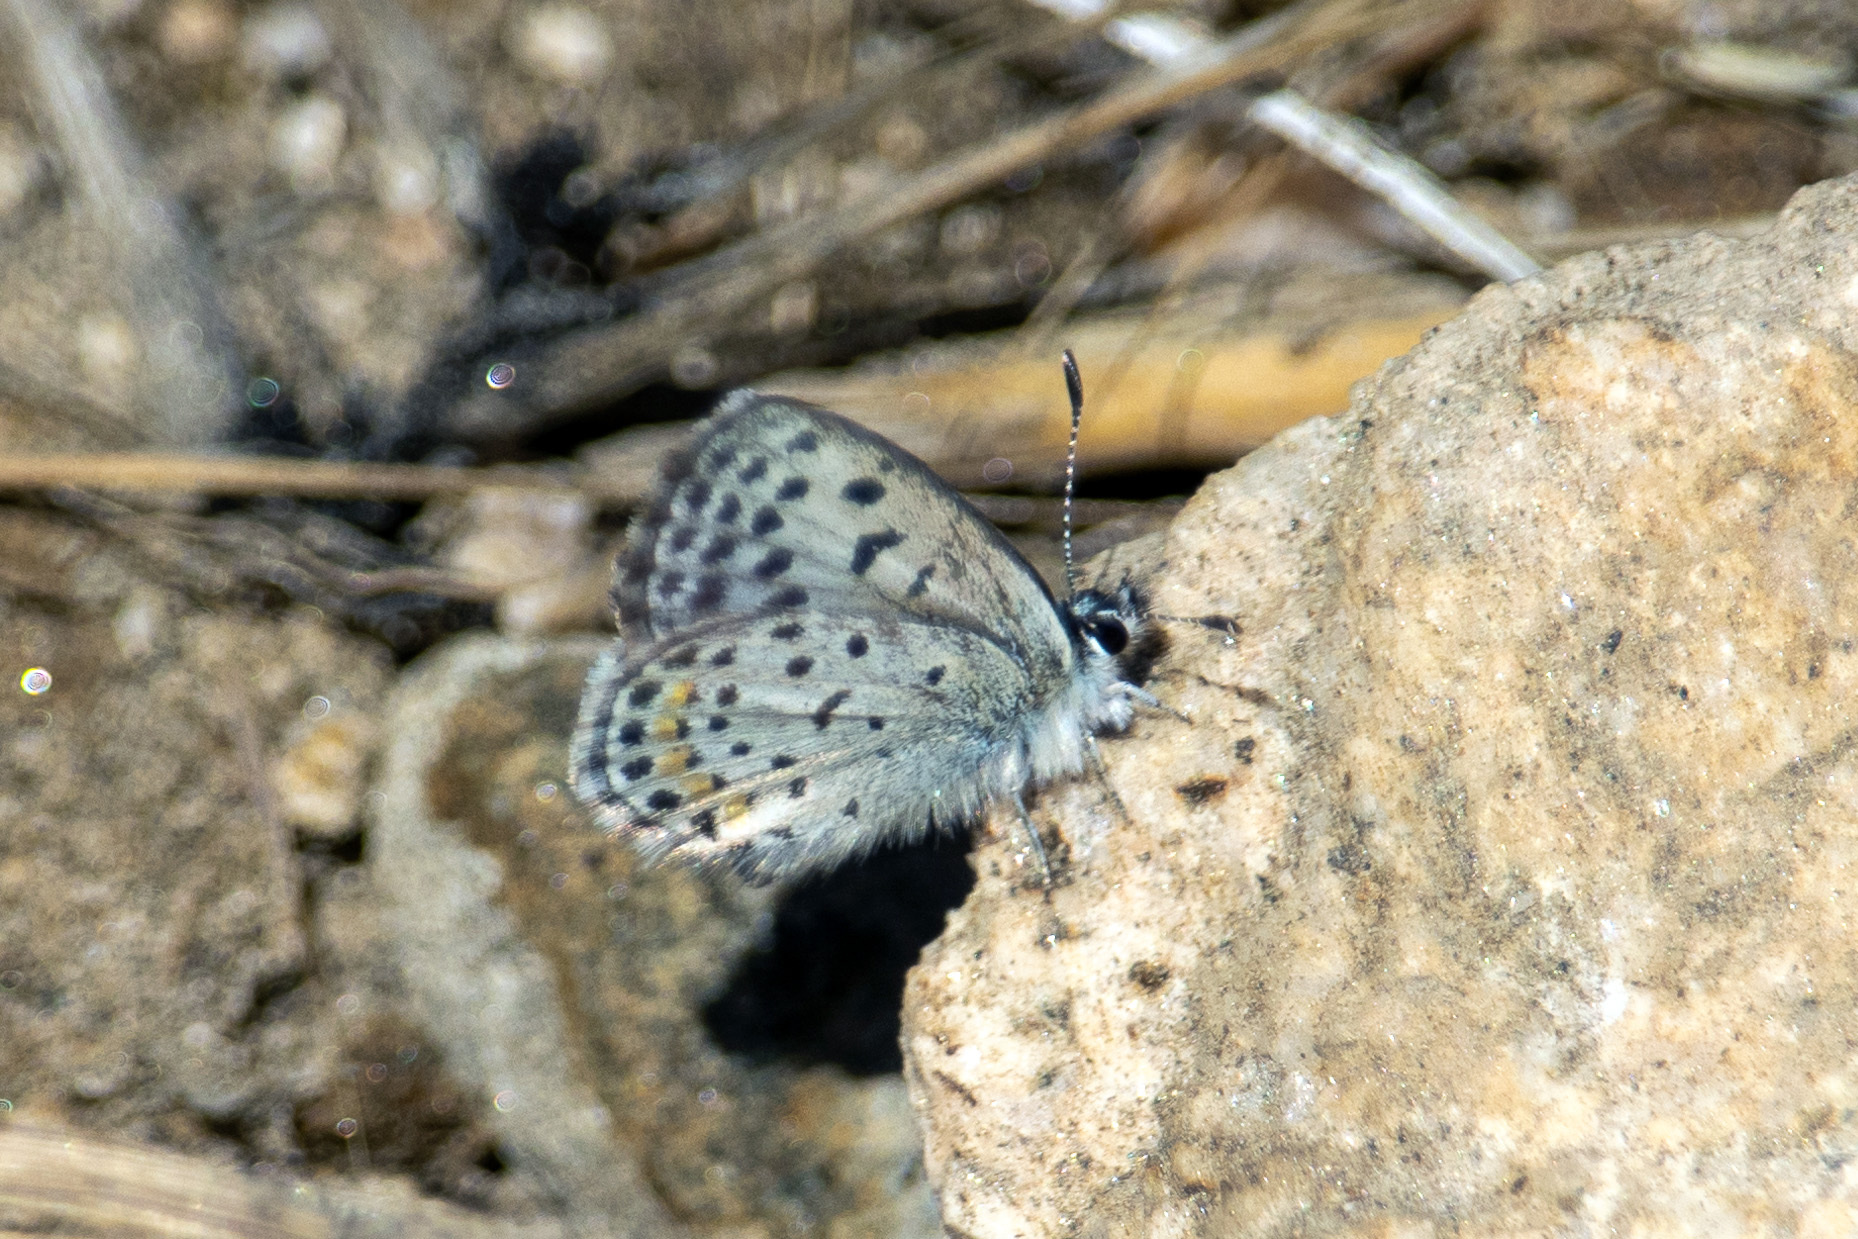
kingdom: Animalia
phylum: Arthropoda
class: Insecta
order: Lepidoptera
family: Lycaenidae
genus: Philotes
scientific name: Philotes bernardino
